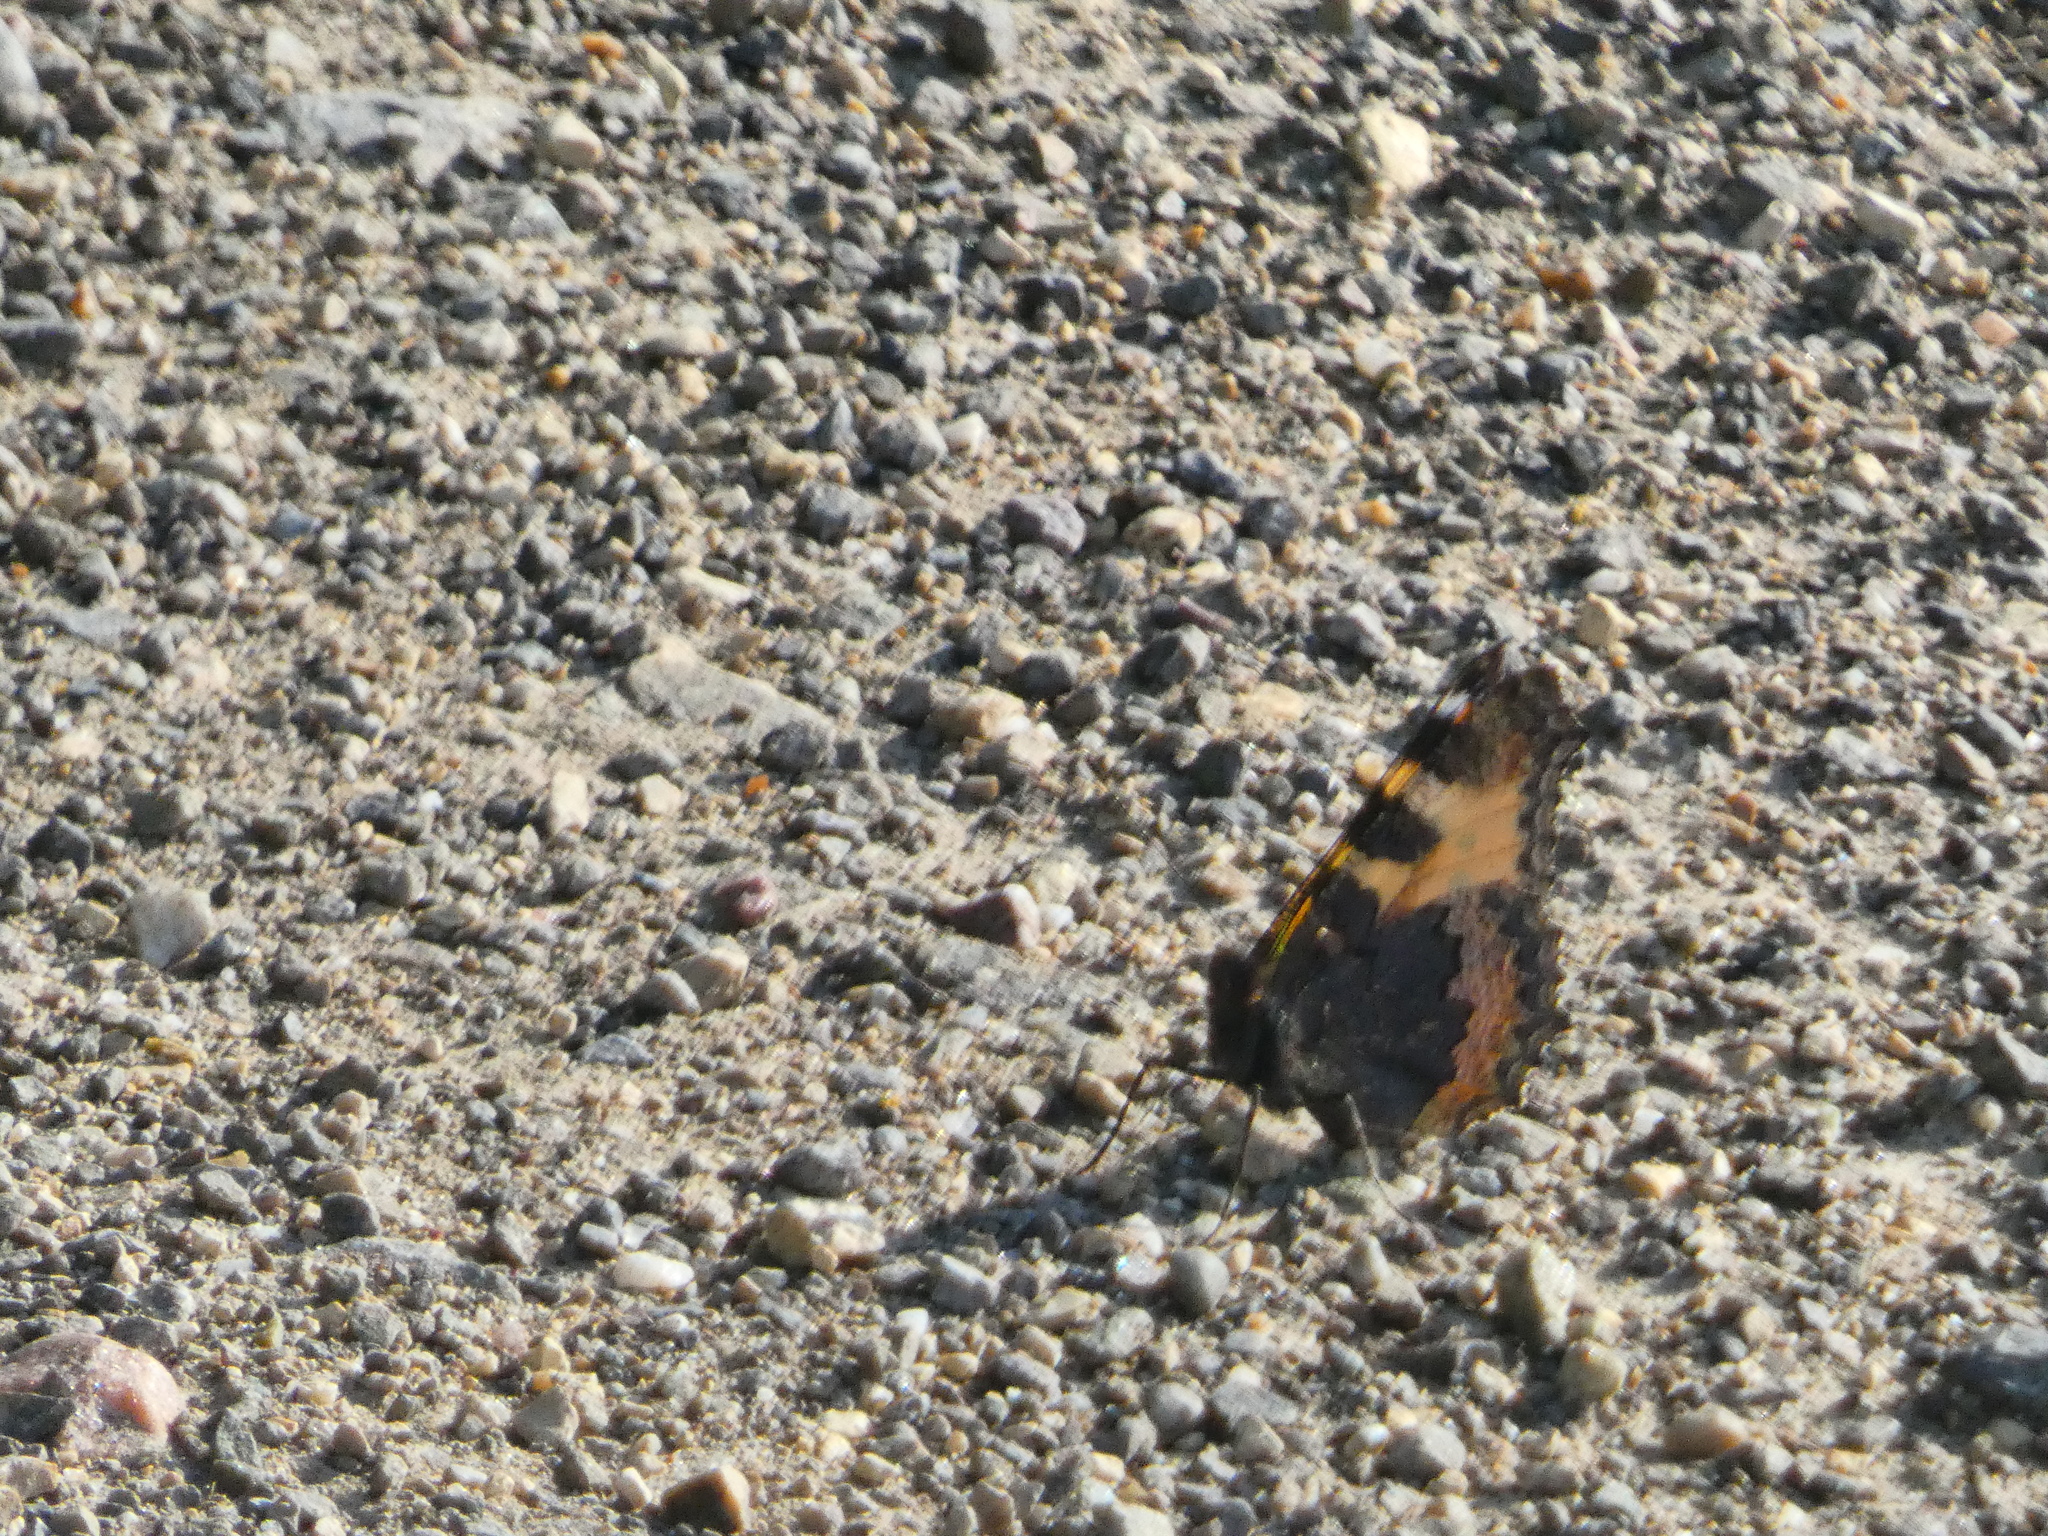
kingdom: Animalia
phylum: Arthropoda
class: Insecta
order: Lepidoptera
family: Nymphalidae
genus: Aglais
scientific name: Aglais urticae
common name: Small tortoiseshell
